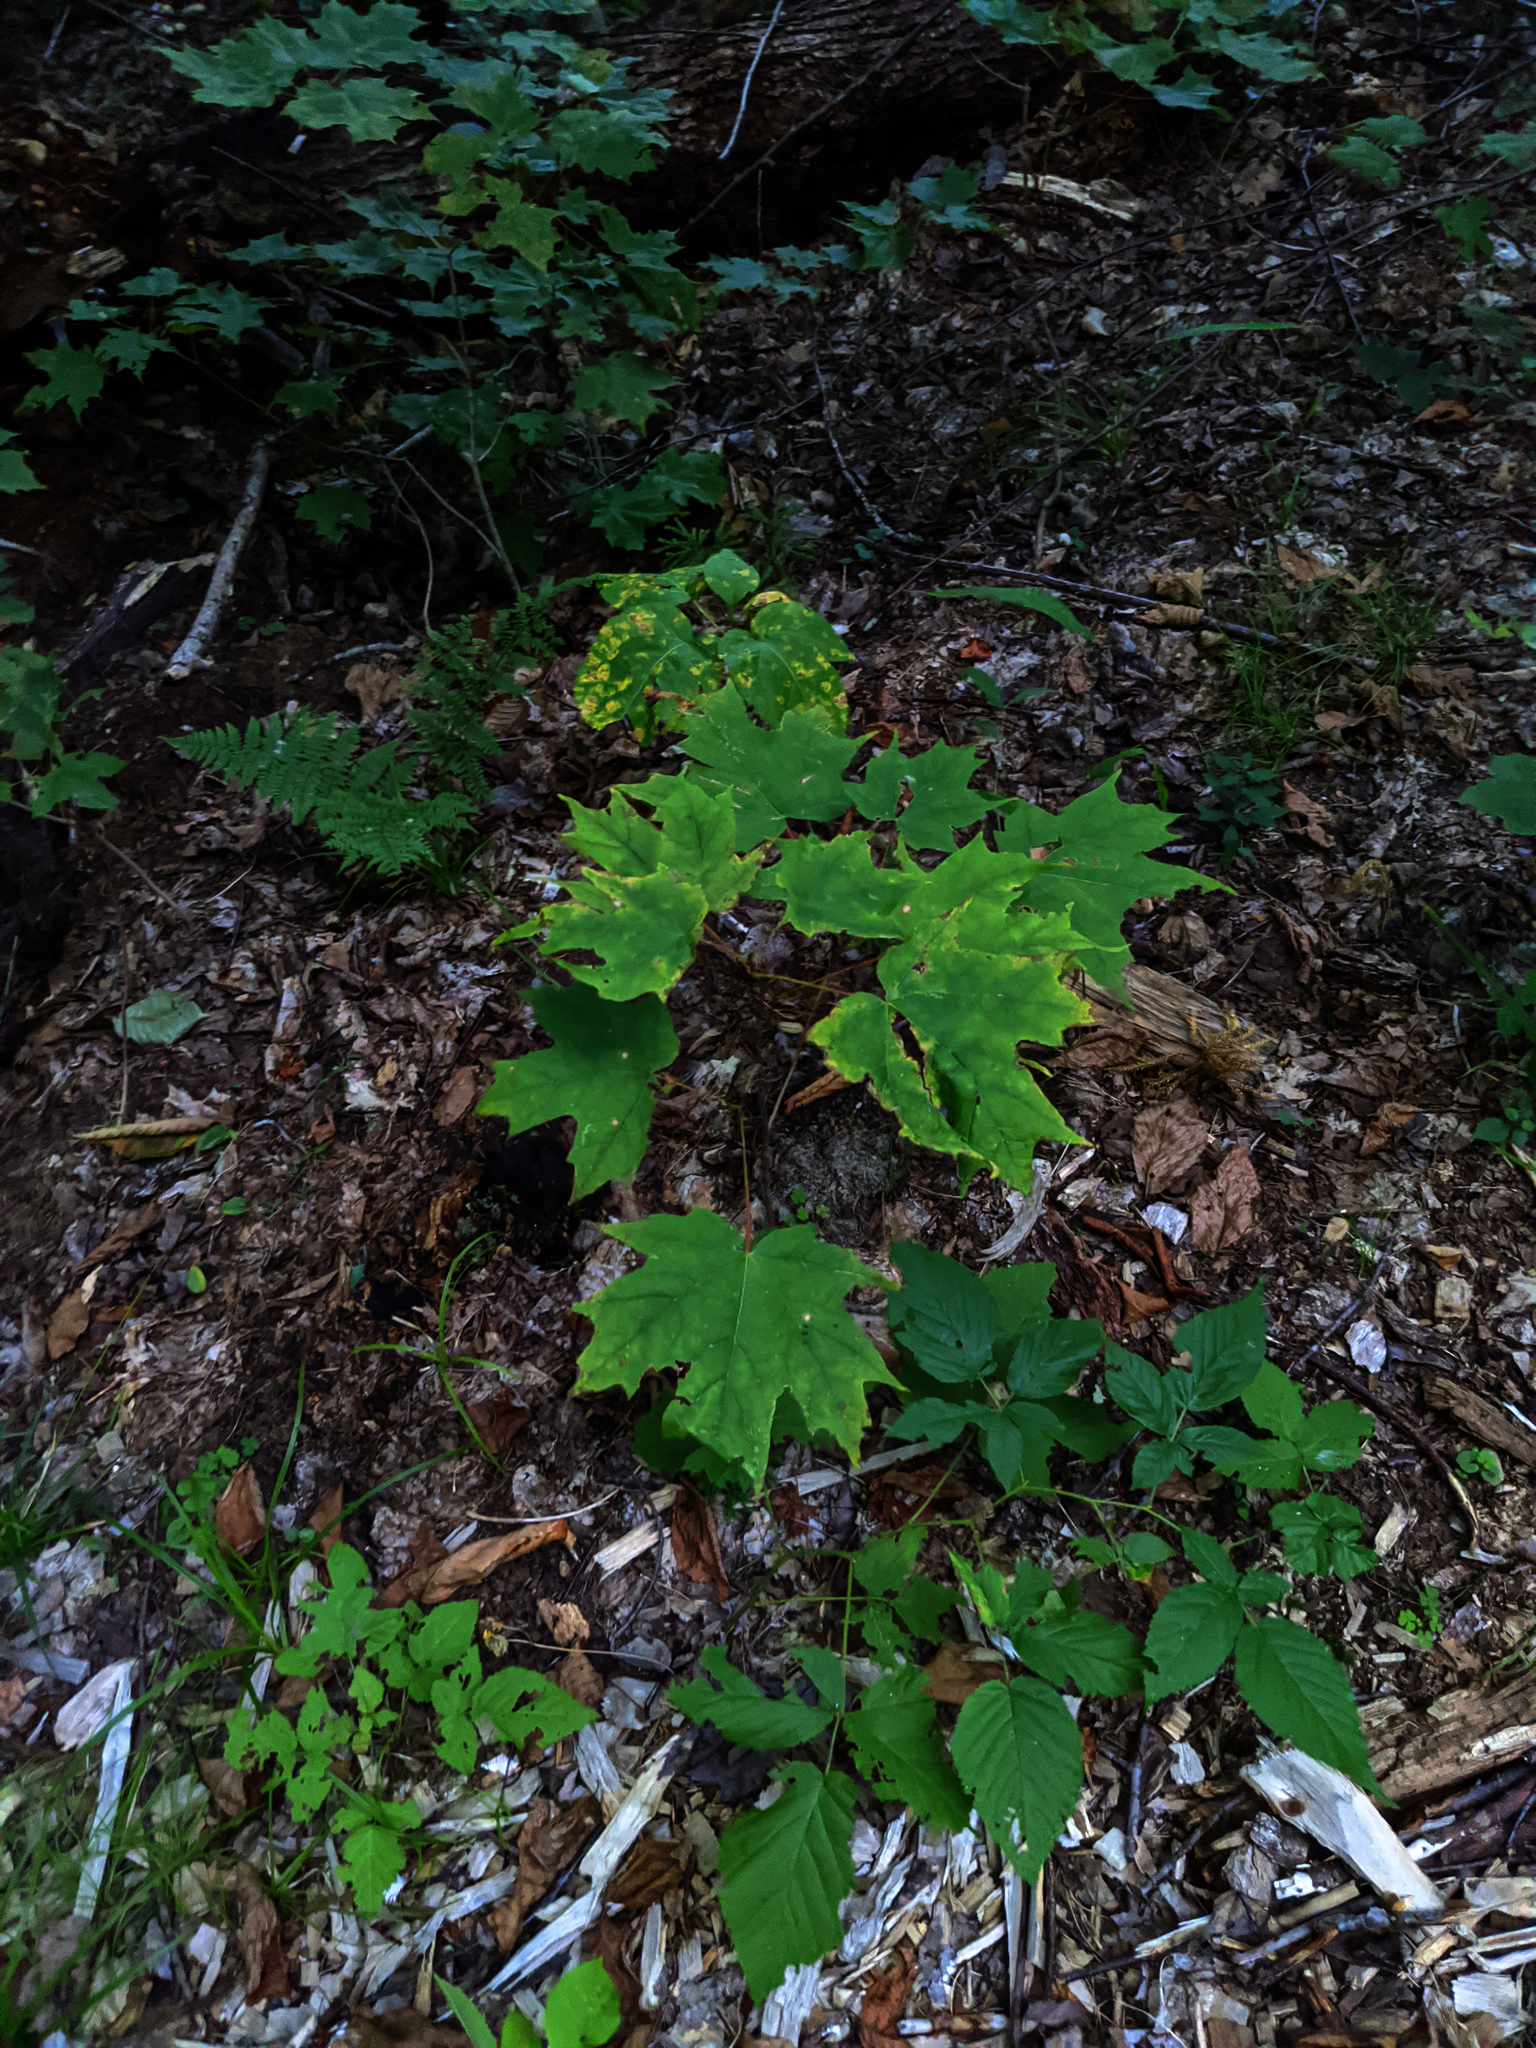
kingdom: Plantae
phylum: Tracheophyta
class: Magnoliopsida
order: Sapindales
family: Sapindaceae
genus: Acer
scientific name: Acer saccharum
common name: Sugar maple
